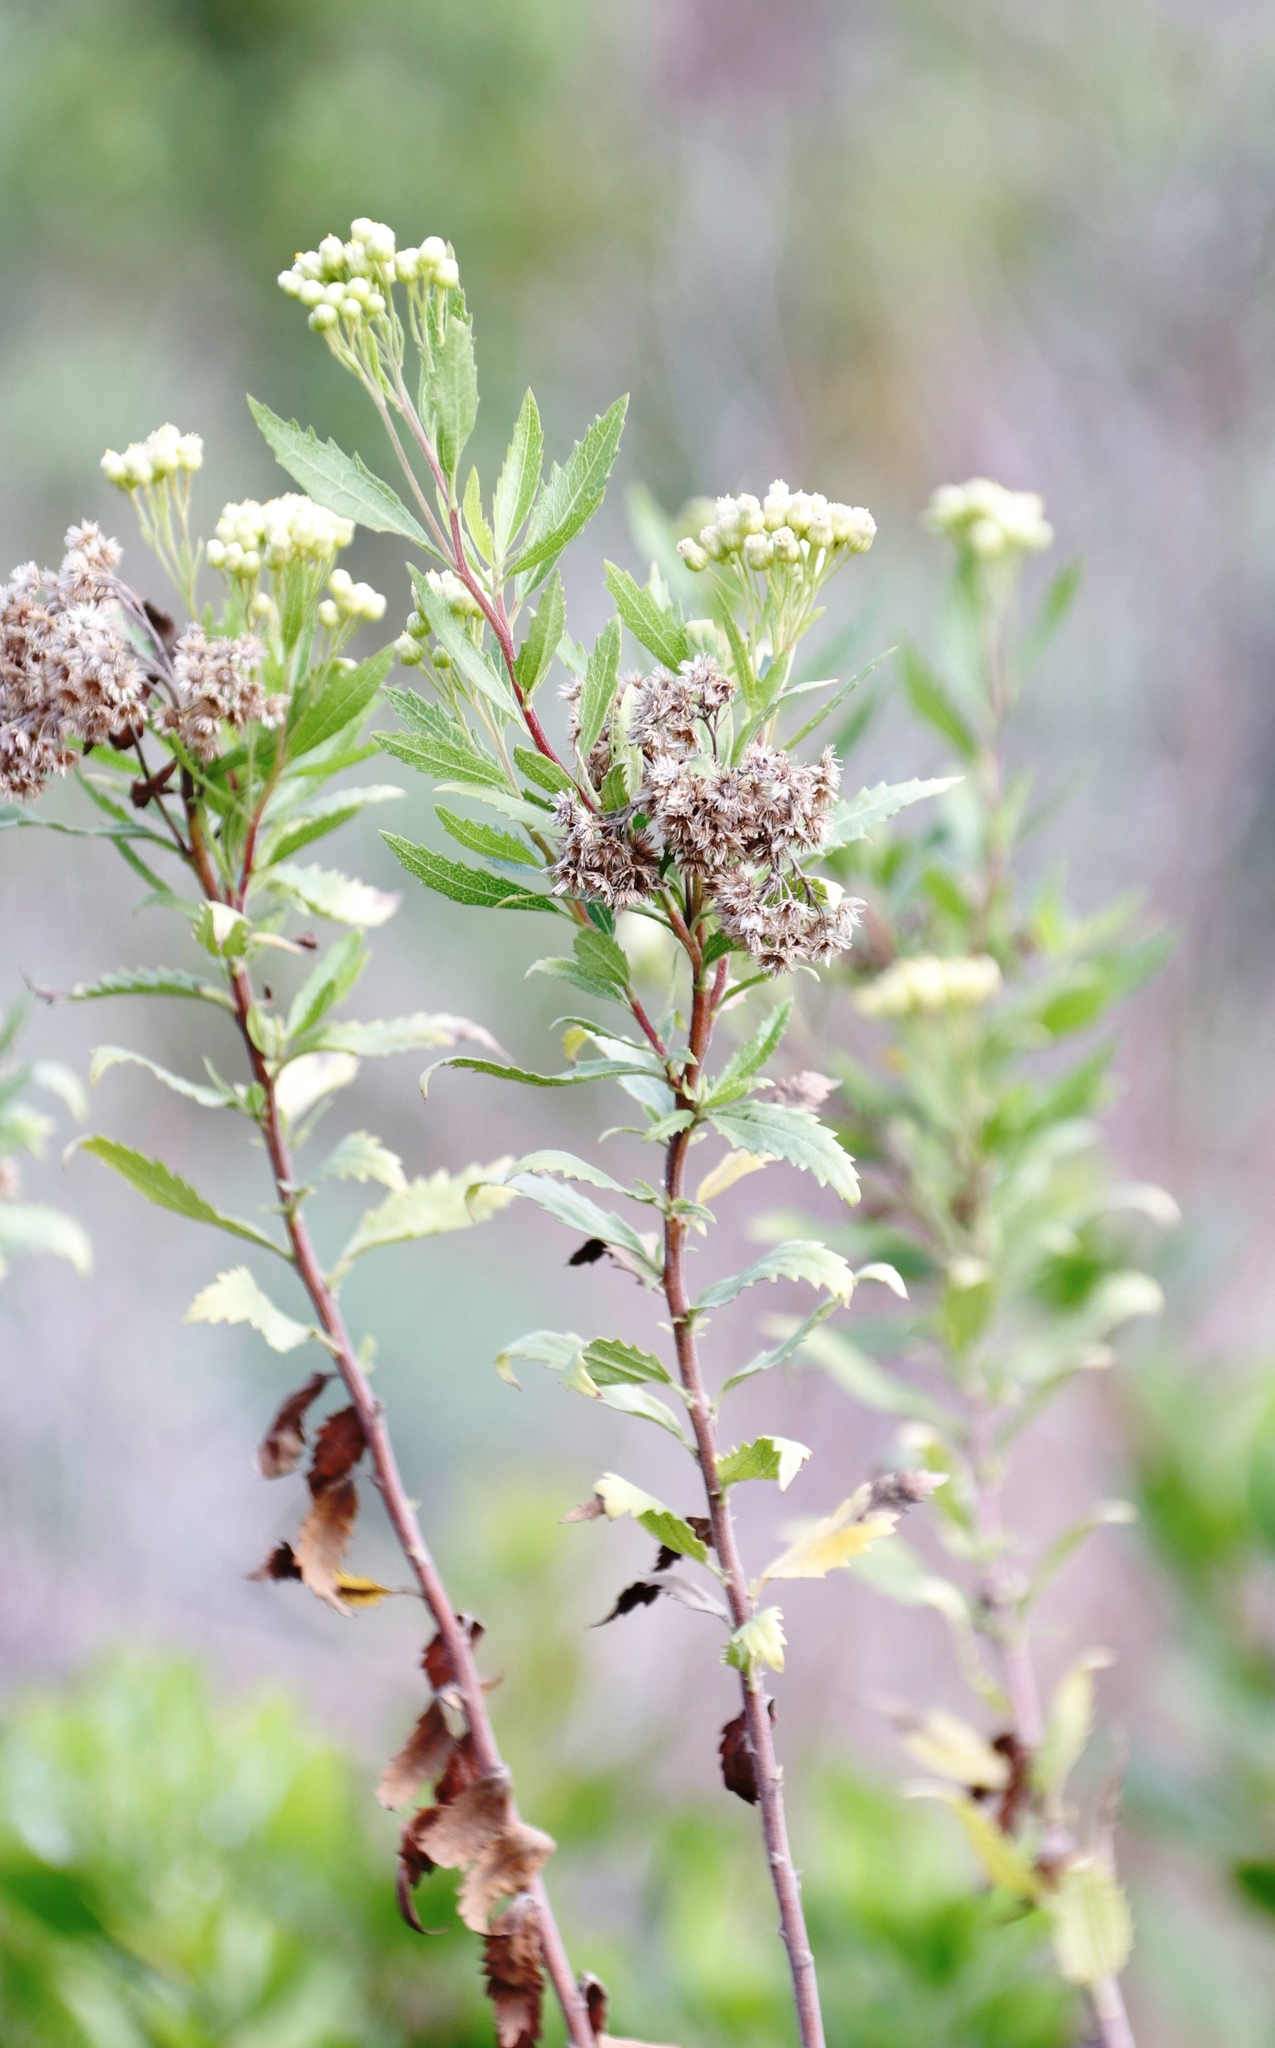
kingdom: Plantae
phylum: Tracheophyta
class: Magnoliopsida
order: Asterales
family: Asteraceae
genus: Nidorella
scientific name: Nidorella ivifolia
